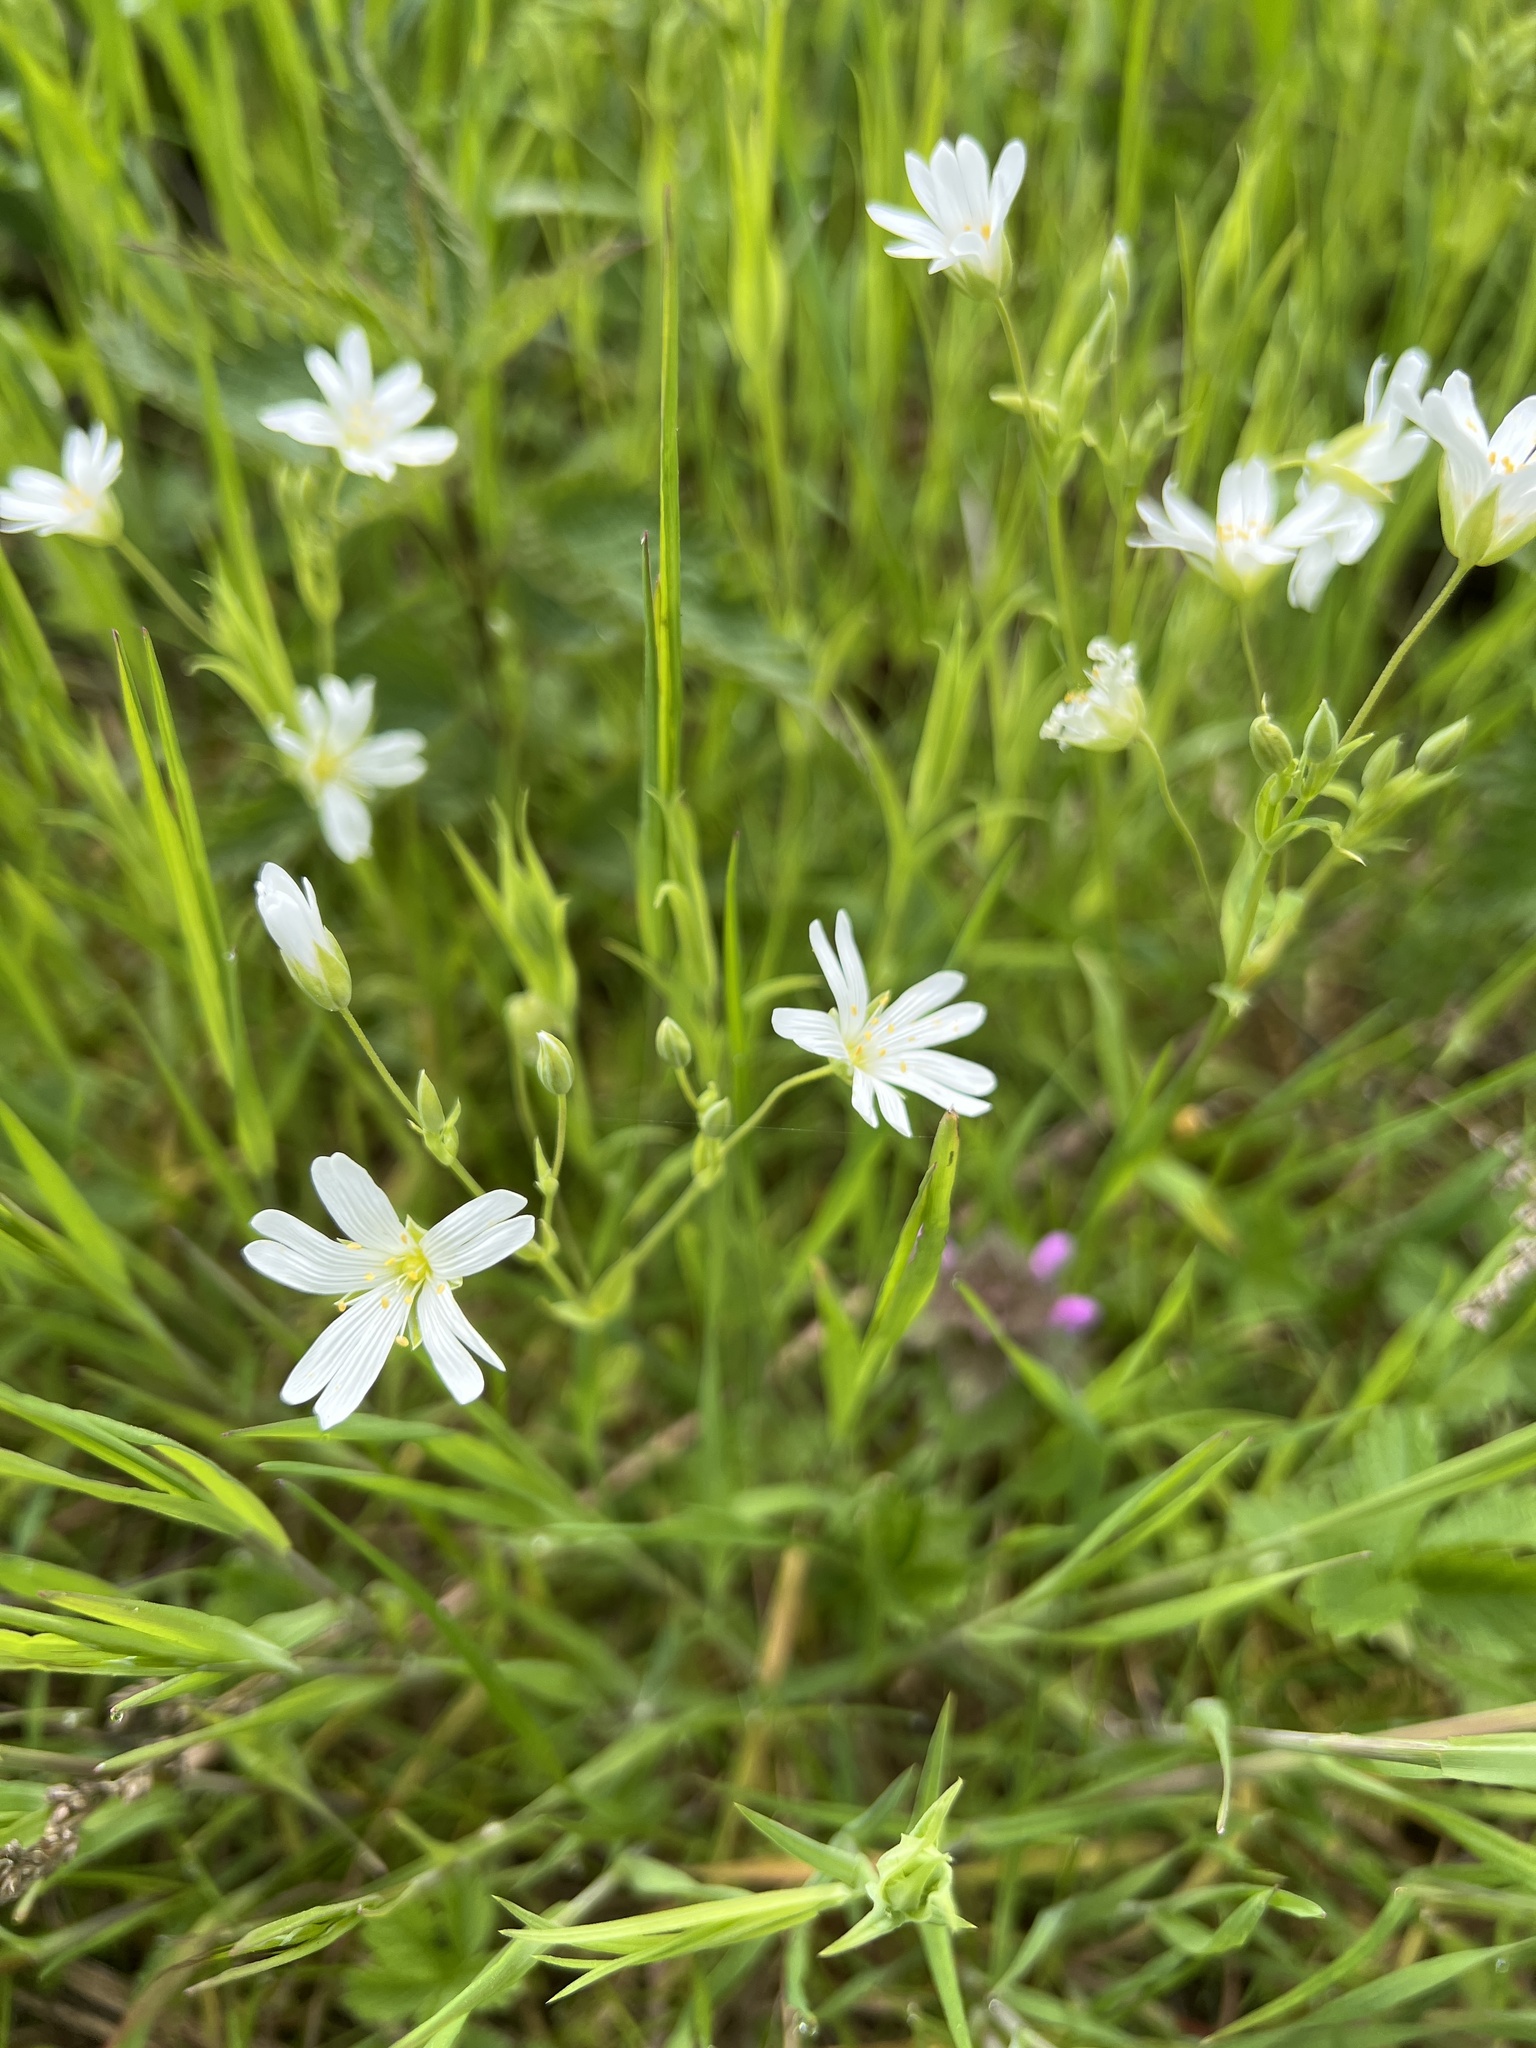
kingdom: Plantae
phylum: Tracheophyta
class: Magnoliopsida
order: Caryophyllales
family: Caryophyllaceae
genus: Rabelera
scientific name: Rabelera holostea
